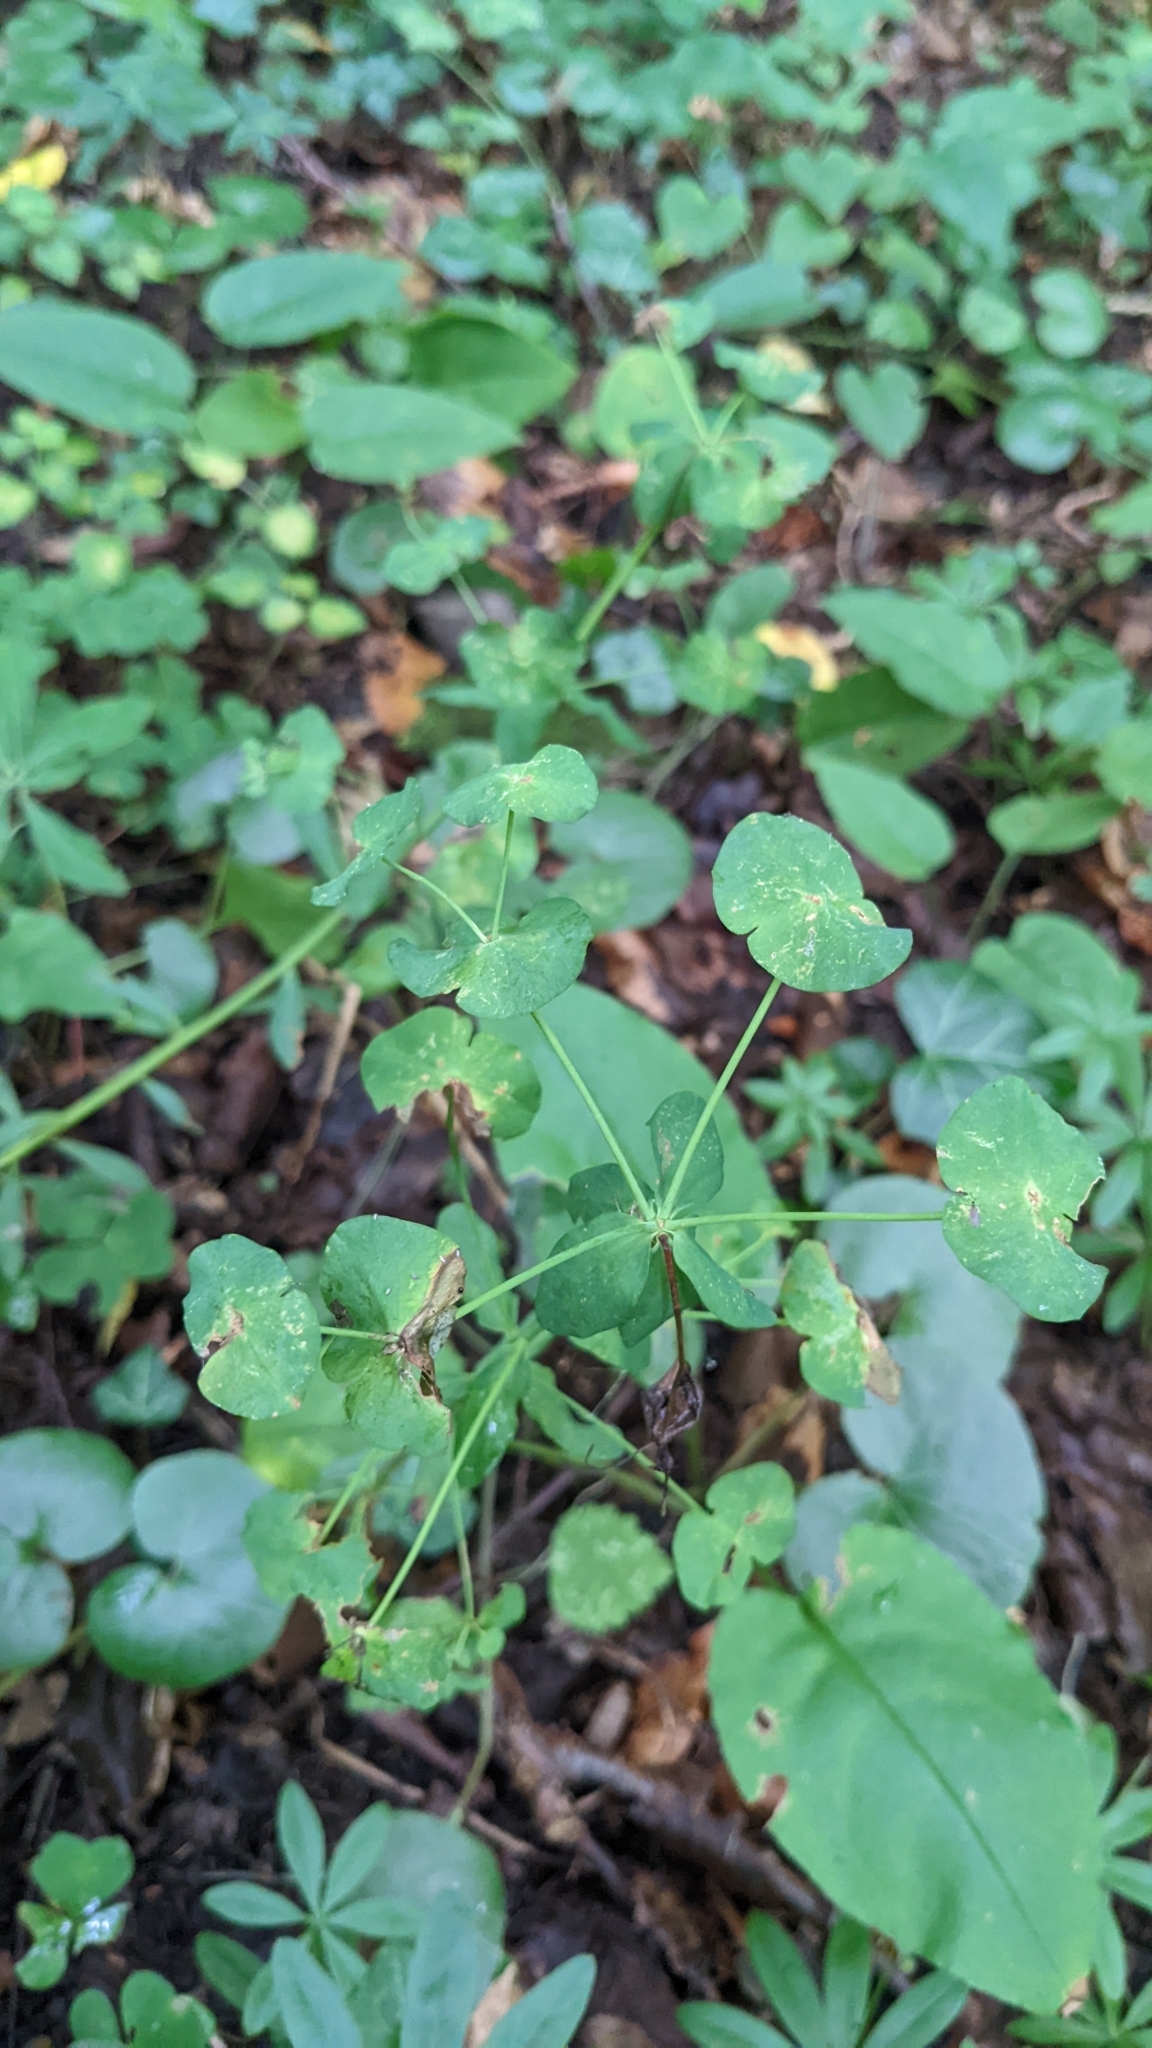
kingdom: Plantae
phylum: Tracheophyta
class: Magnoliopsida
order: Malpighiales
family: Euphorbiaceae
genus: Euphorbia
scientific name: Euphorbia amygdaloides
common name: Wood spurge
